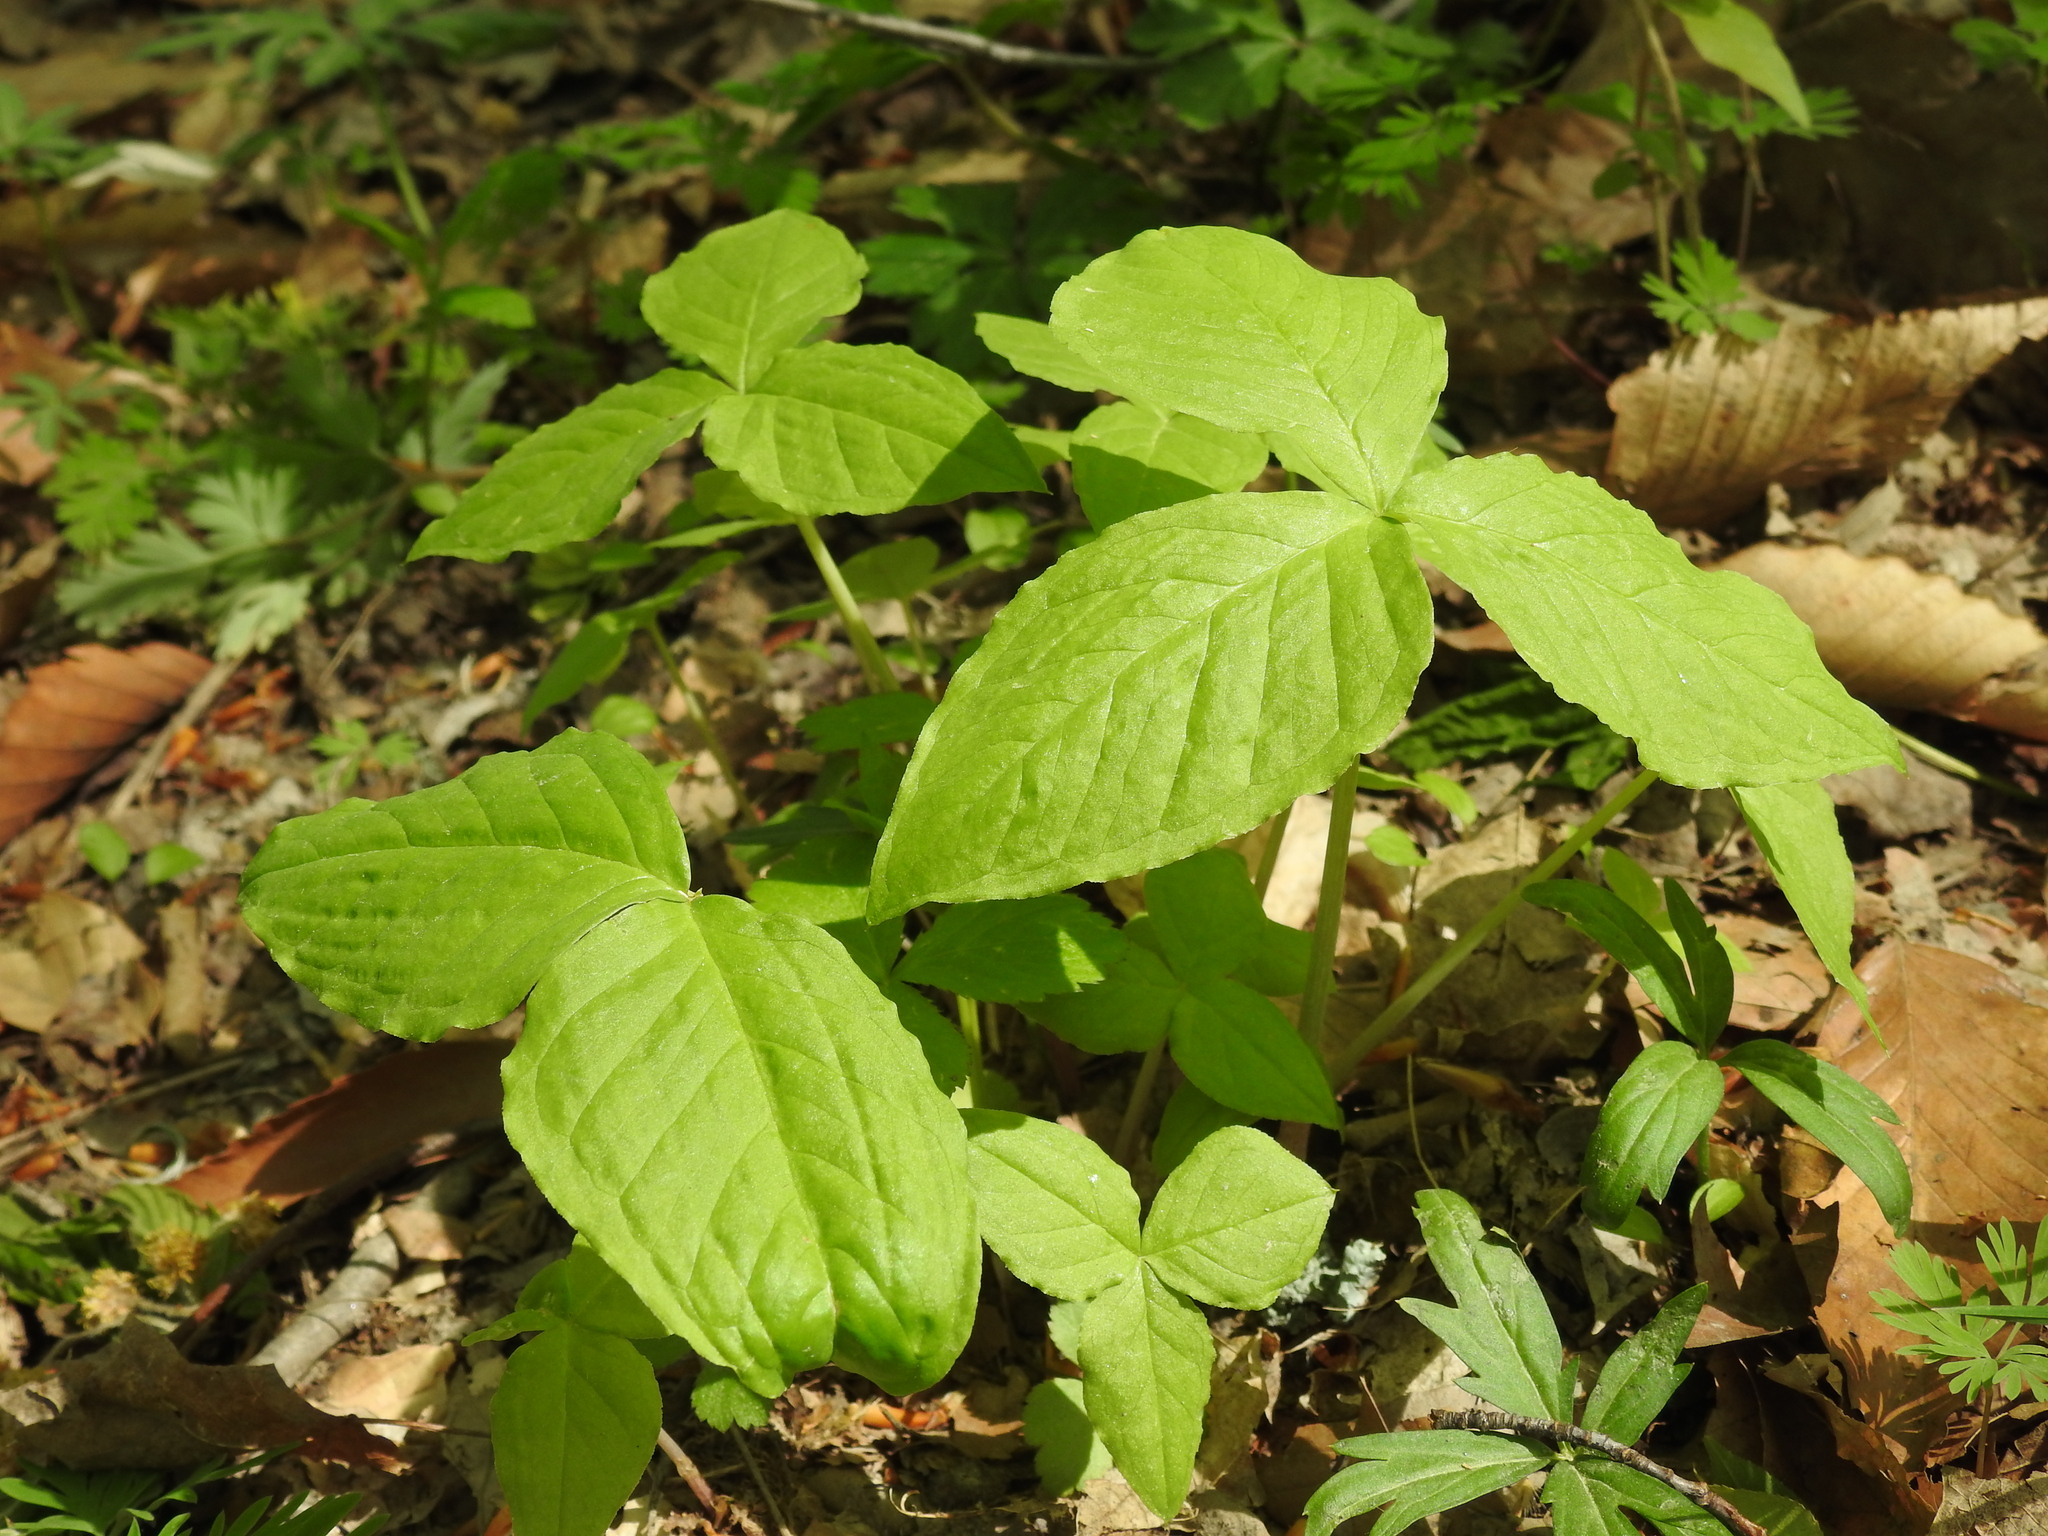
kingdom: Plantae
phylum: Tracheophyta
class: Liliopsida
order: Alismatales
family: Araceae
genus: Arisaema
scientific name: Arisaema triphyllum
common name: Jack-in-the-pulpit
